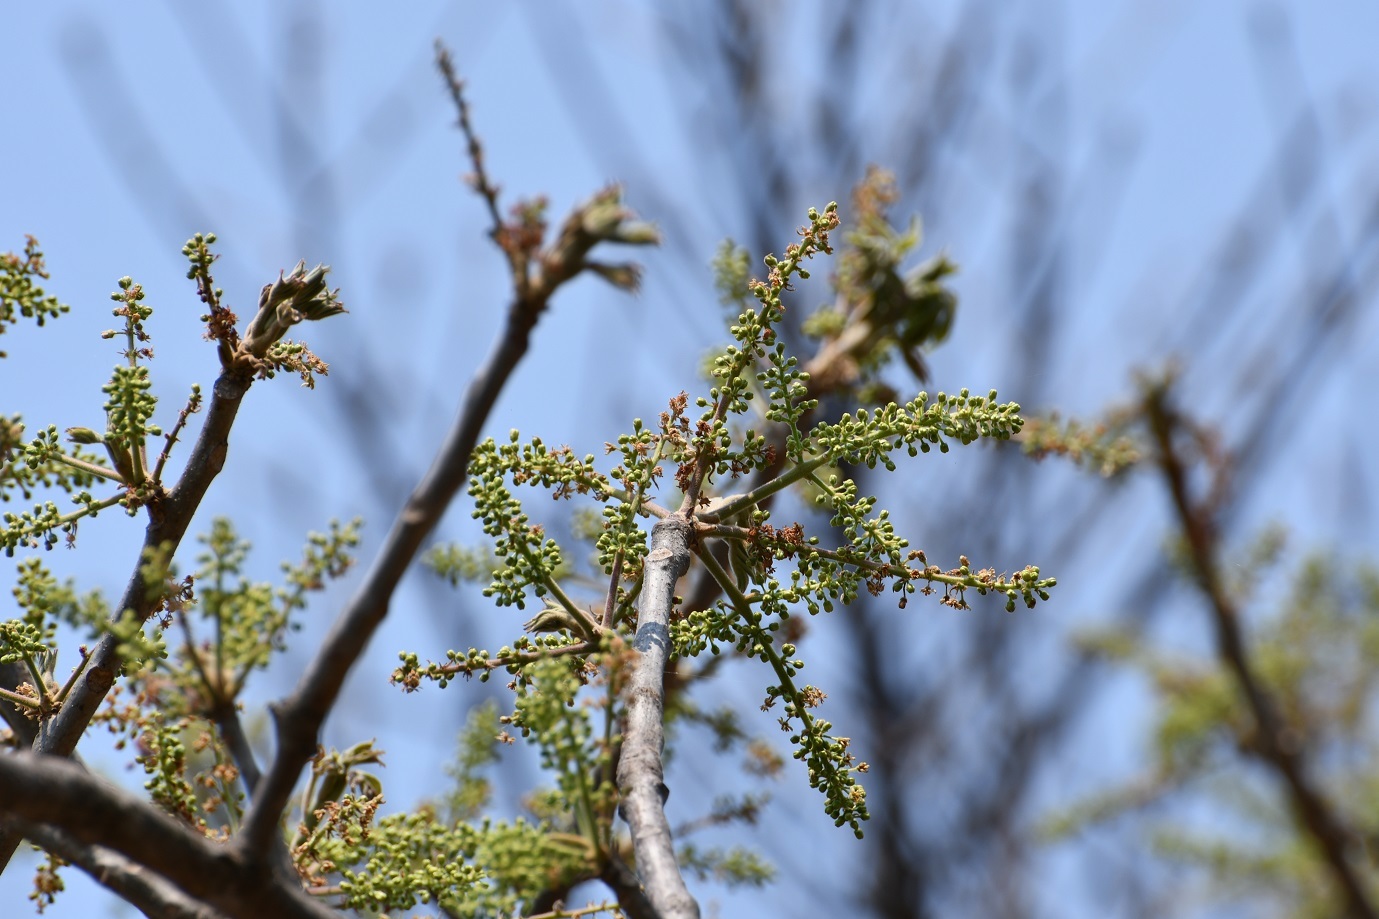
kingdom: Plantae
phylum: Tracheophyta
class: Magnoliopsida
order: Sapindales
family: Burseraceae
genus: Bursera
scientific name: Bursera simaruba
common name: Turpentine tree
